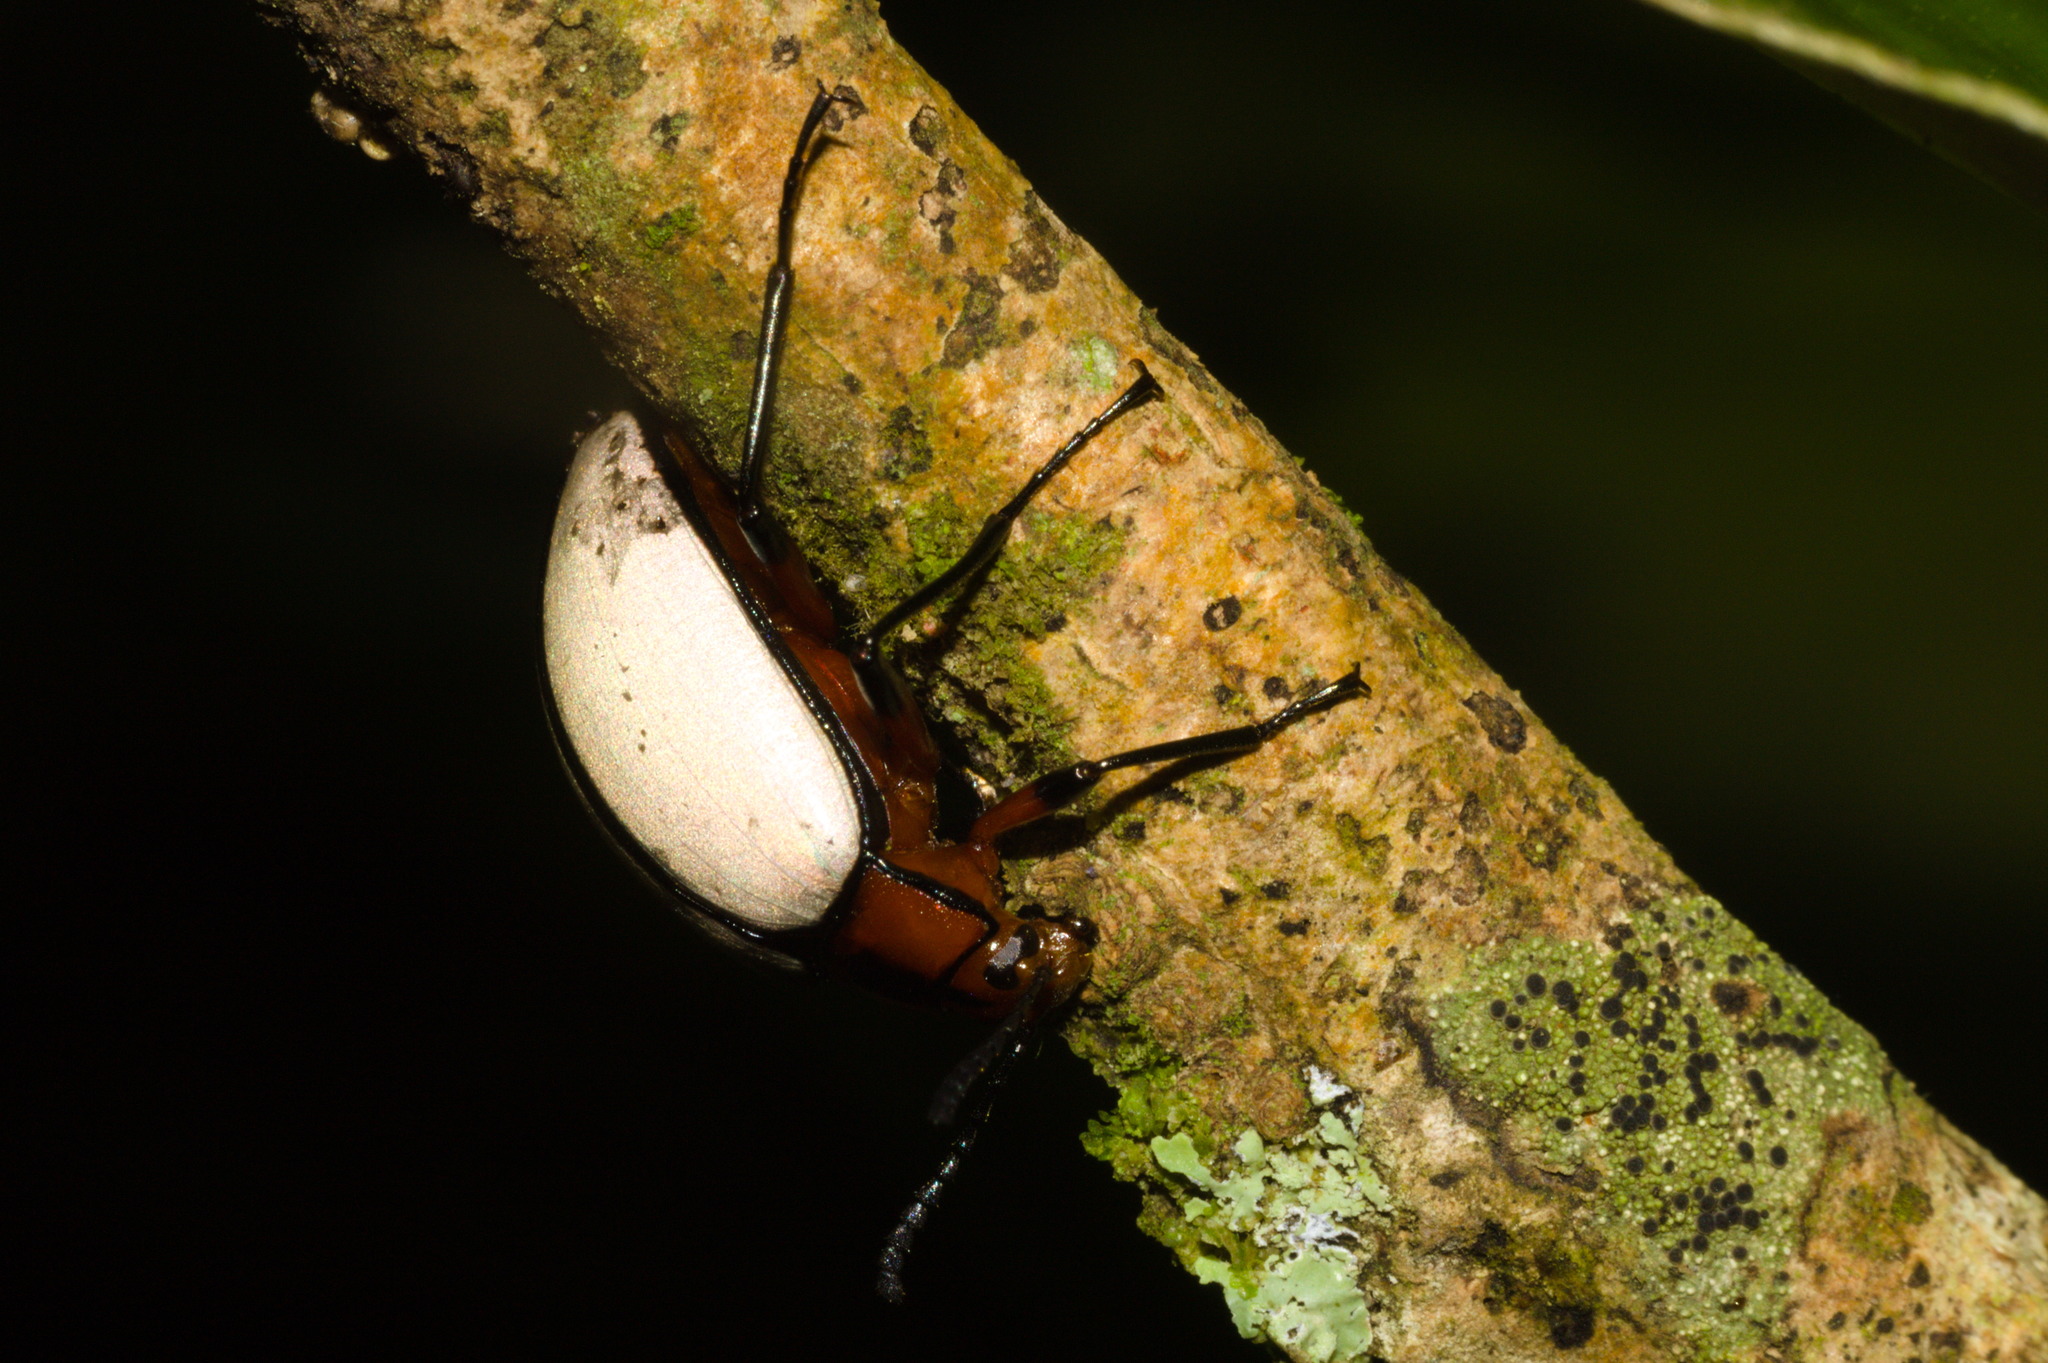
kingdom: Animalia
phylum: Arthropoda
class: Insecta
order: Coleoptera
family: Tenebrionidae
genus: Poecilesthus
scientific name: Poecilesthus
